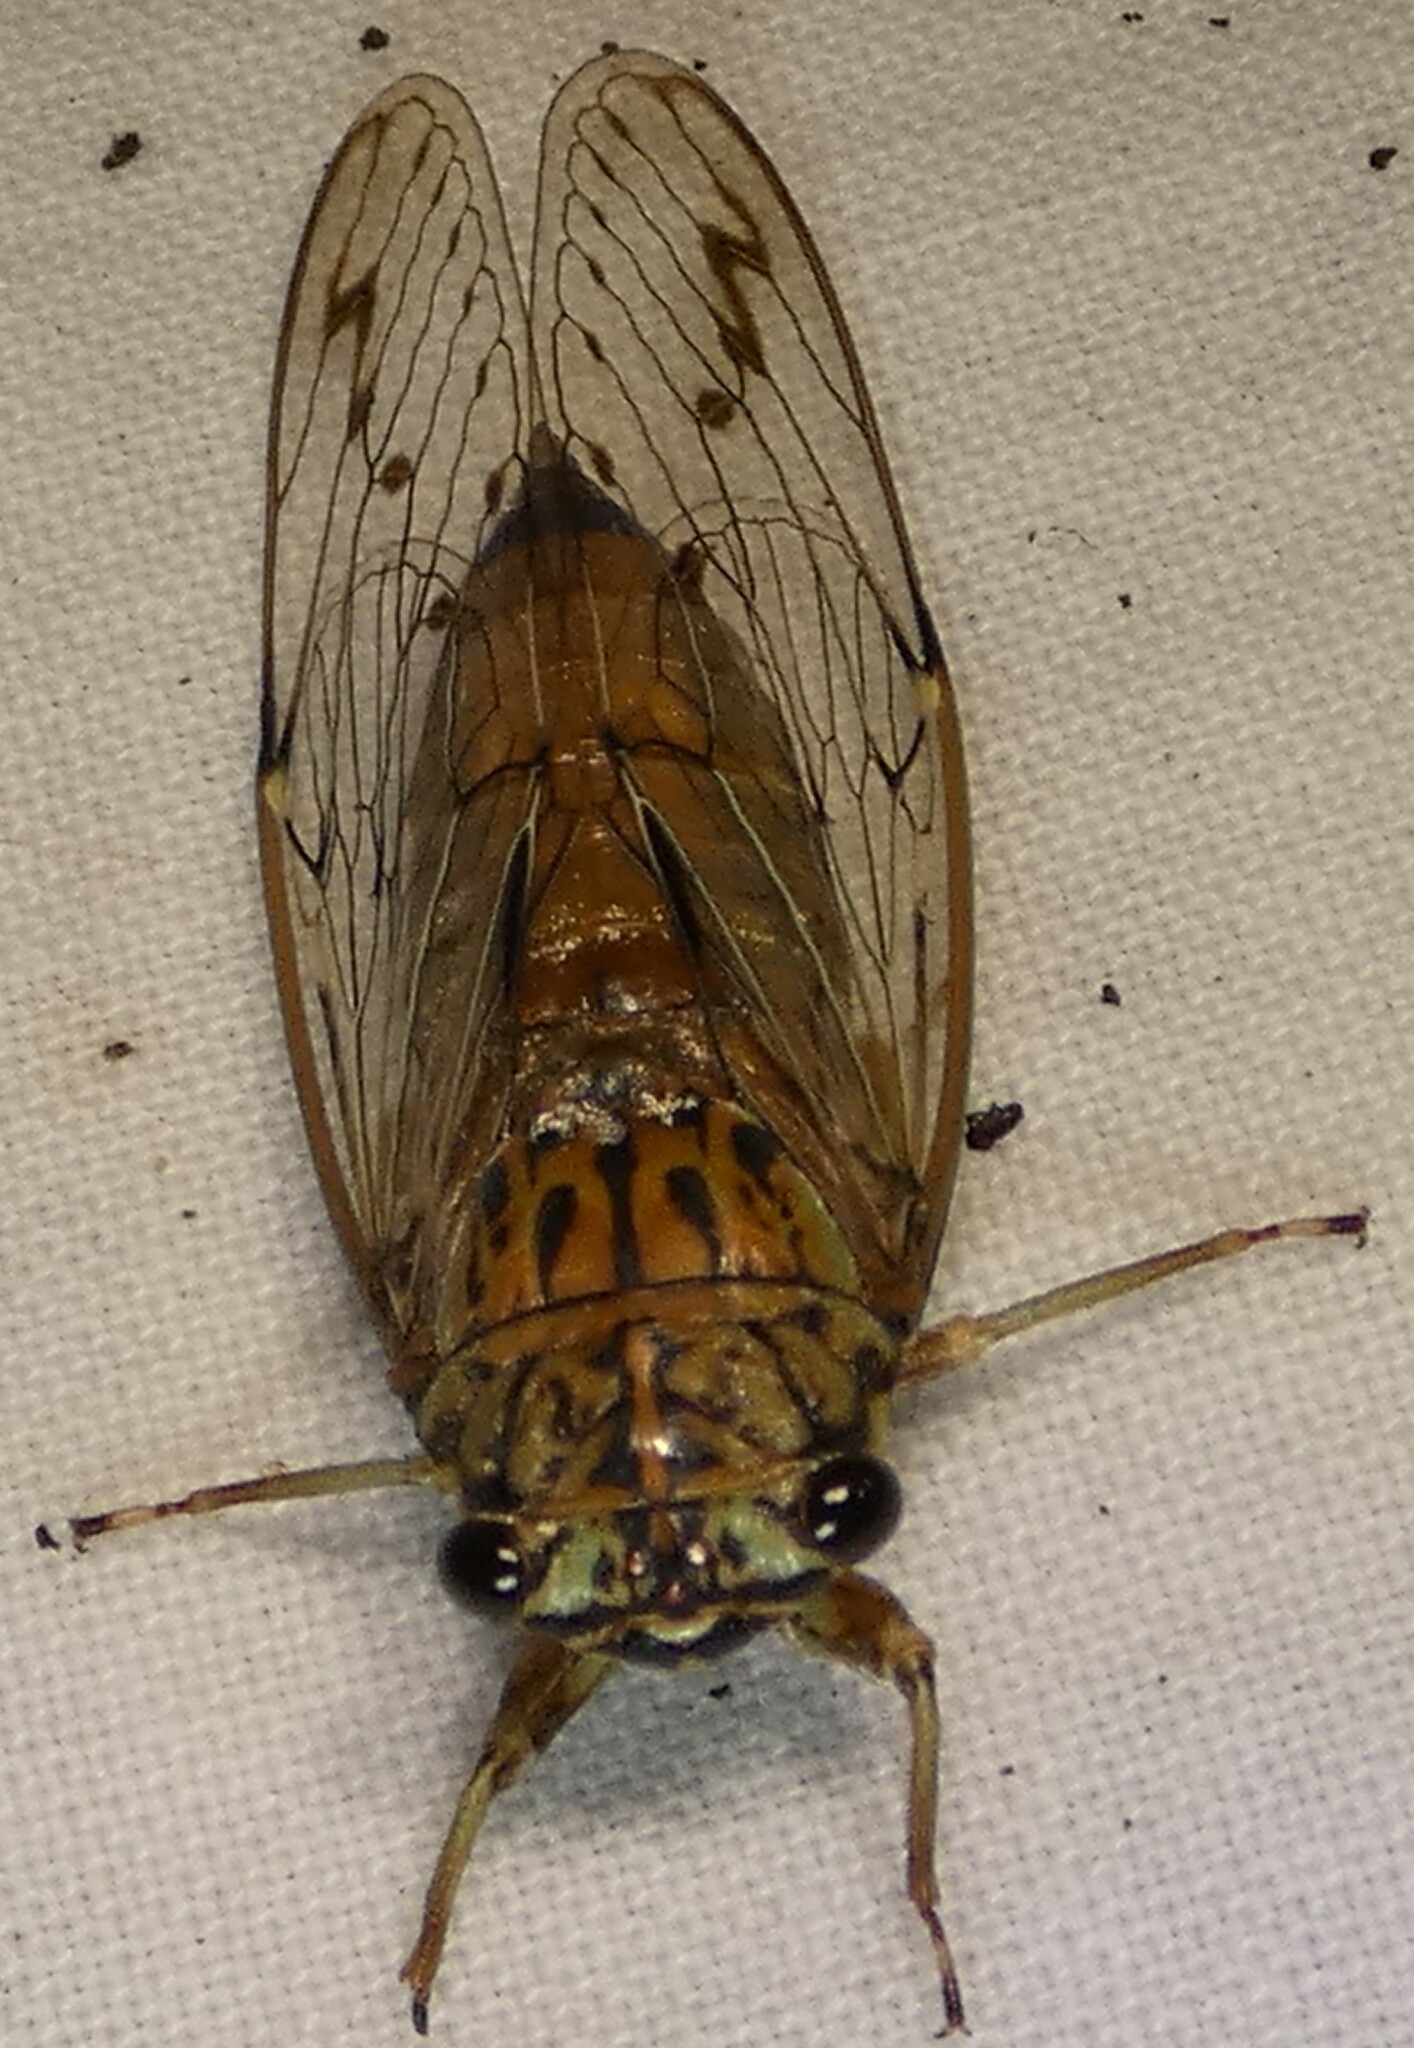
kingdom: Animalia
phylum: Arthropoda
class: Insecta
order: Hemiptera
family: Cicadidae
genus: Neocicada
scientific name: Neocicada hieroglyphica
